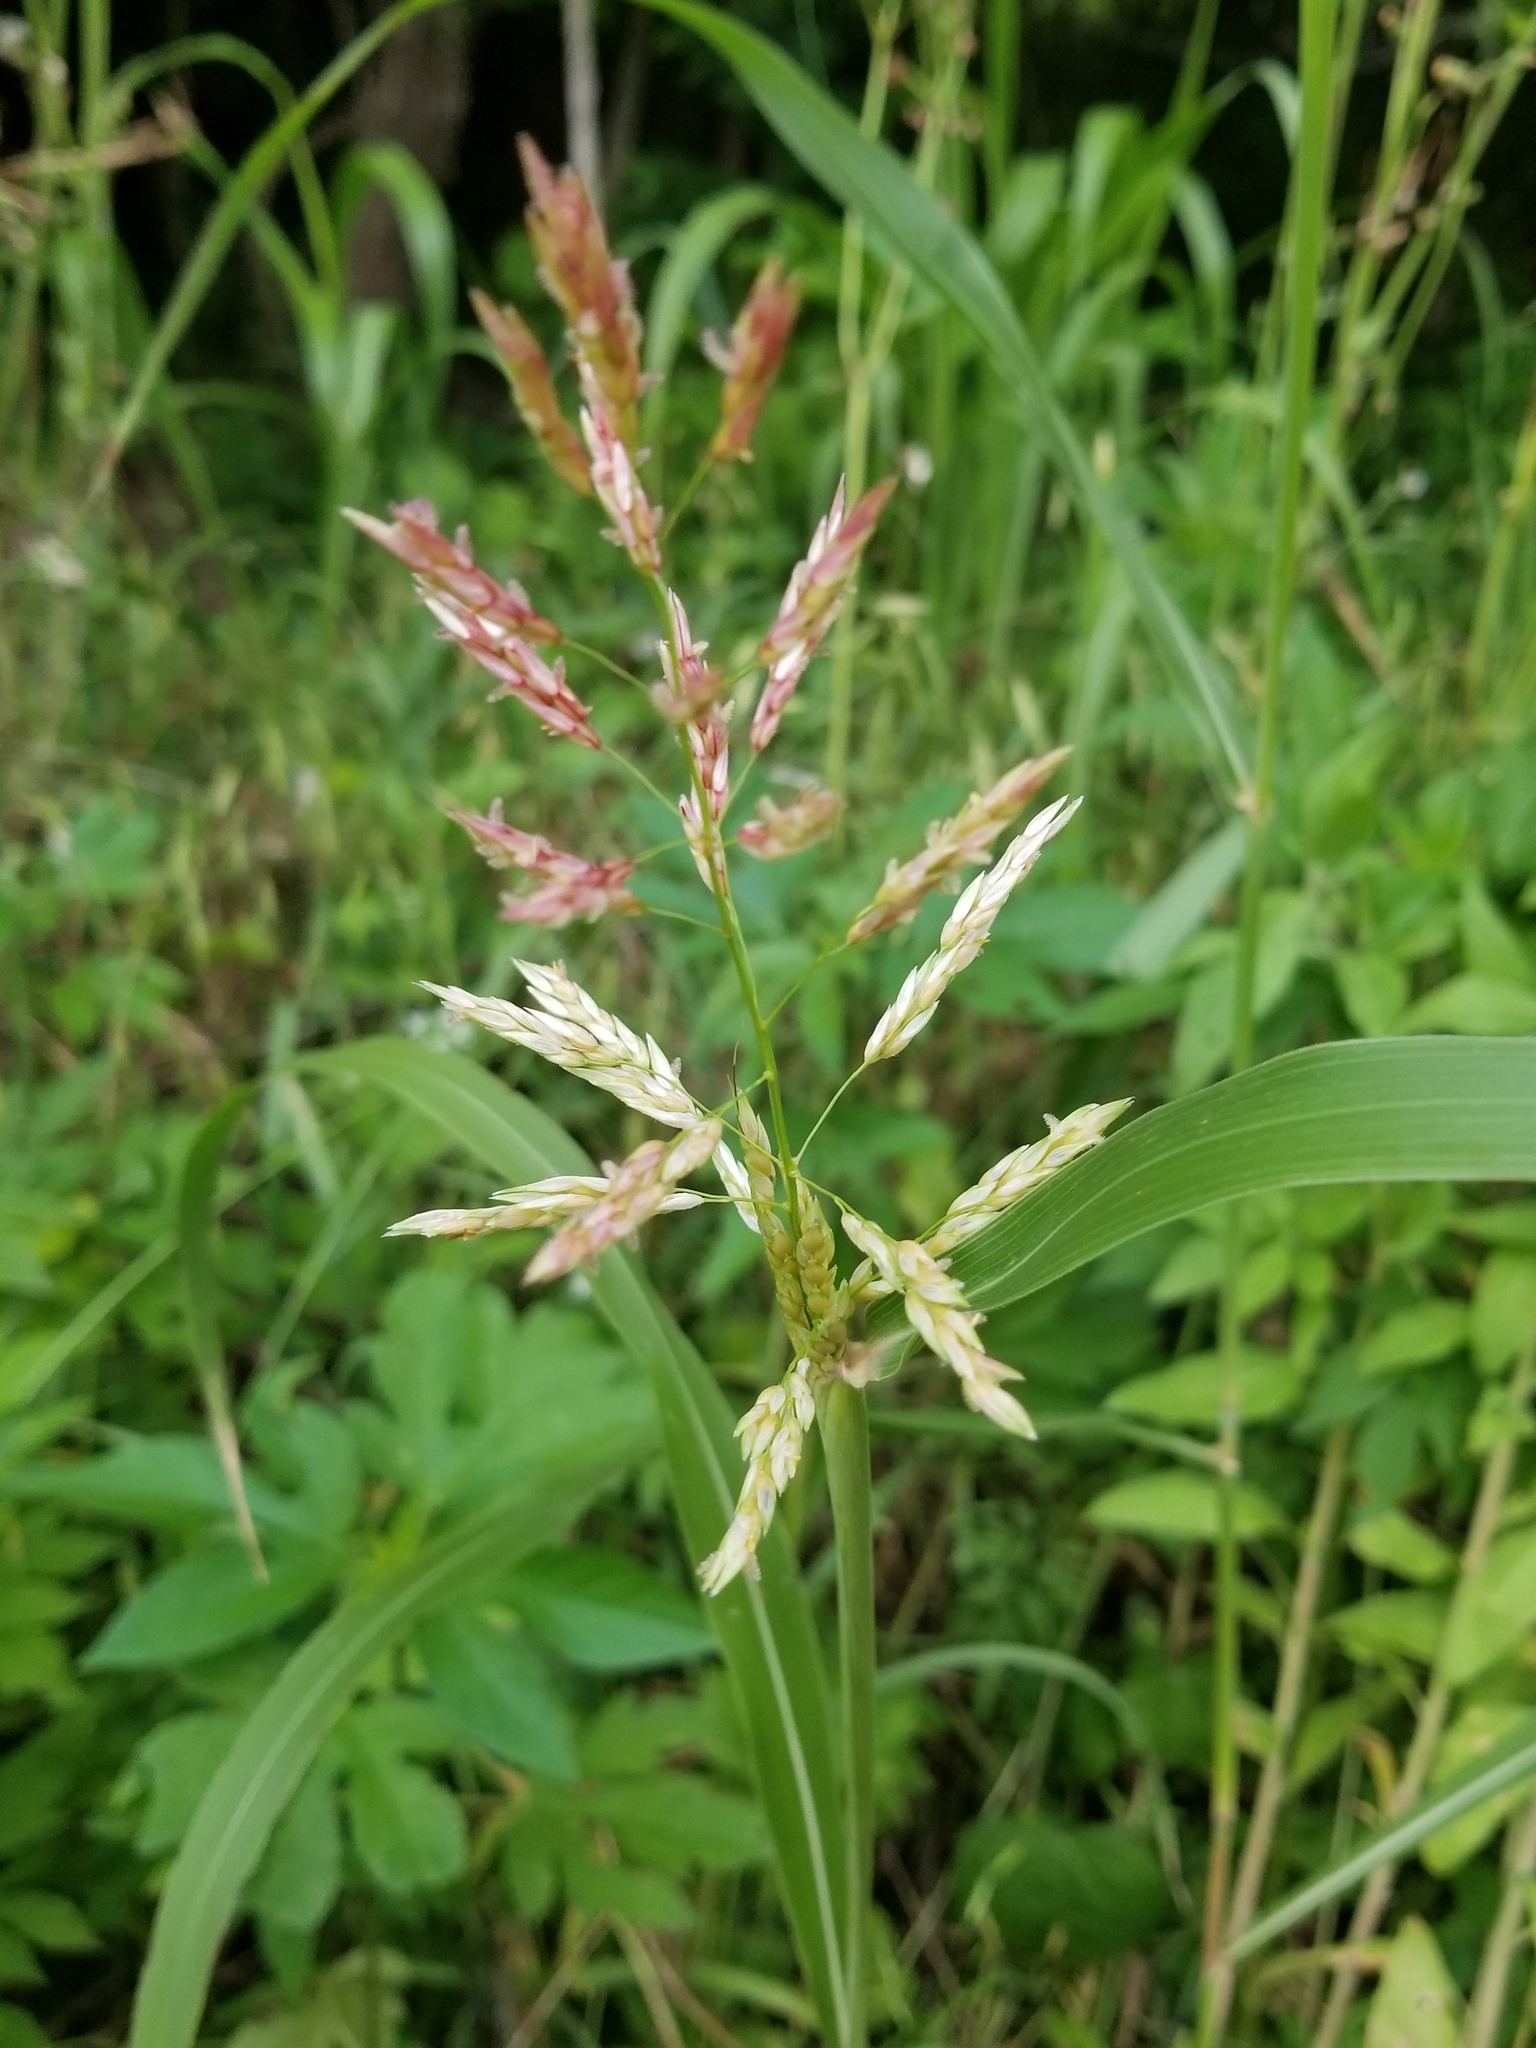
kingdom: Plantae
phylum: Tracheophyta
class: Liliopsida
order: Poales
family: Poaceae
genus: Sorghum
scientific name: Sorghum halepense
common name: Johnson-grass
